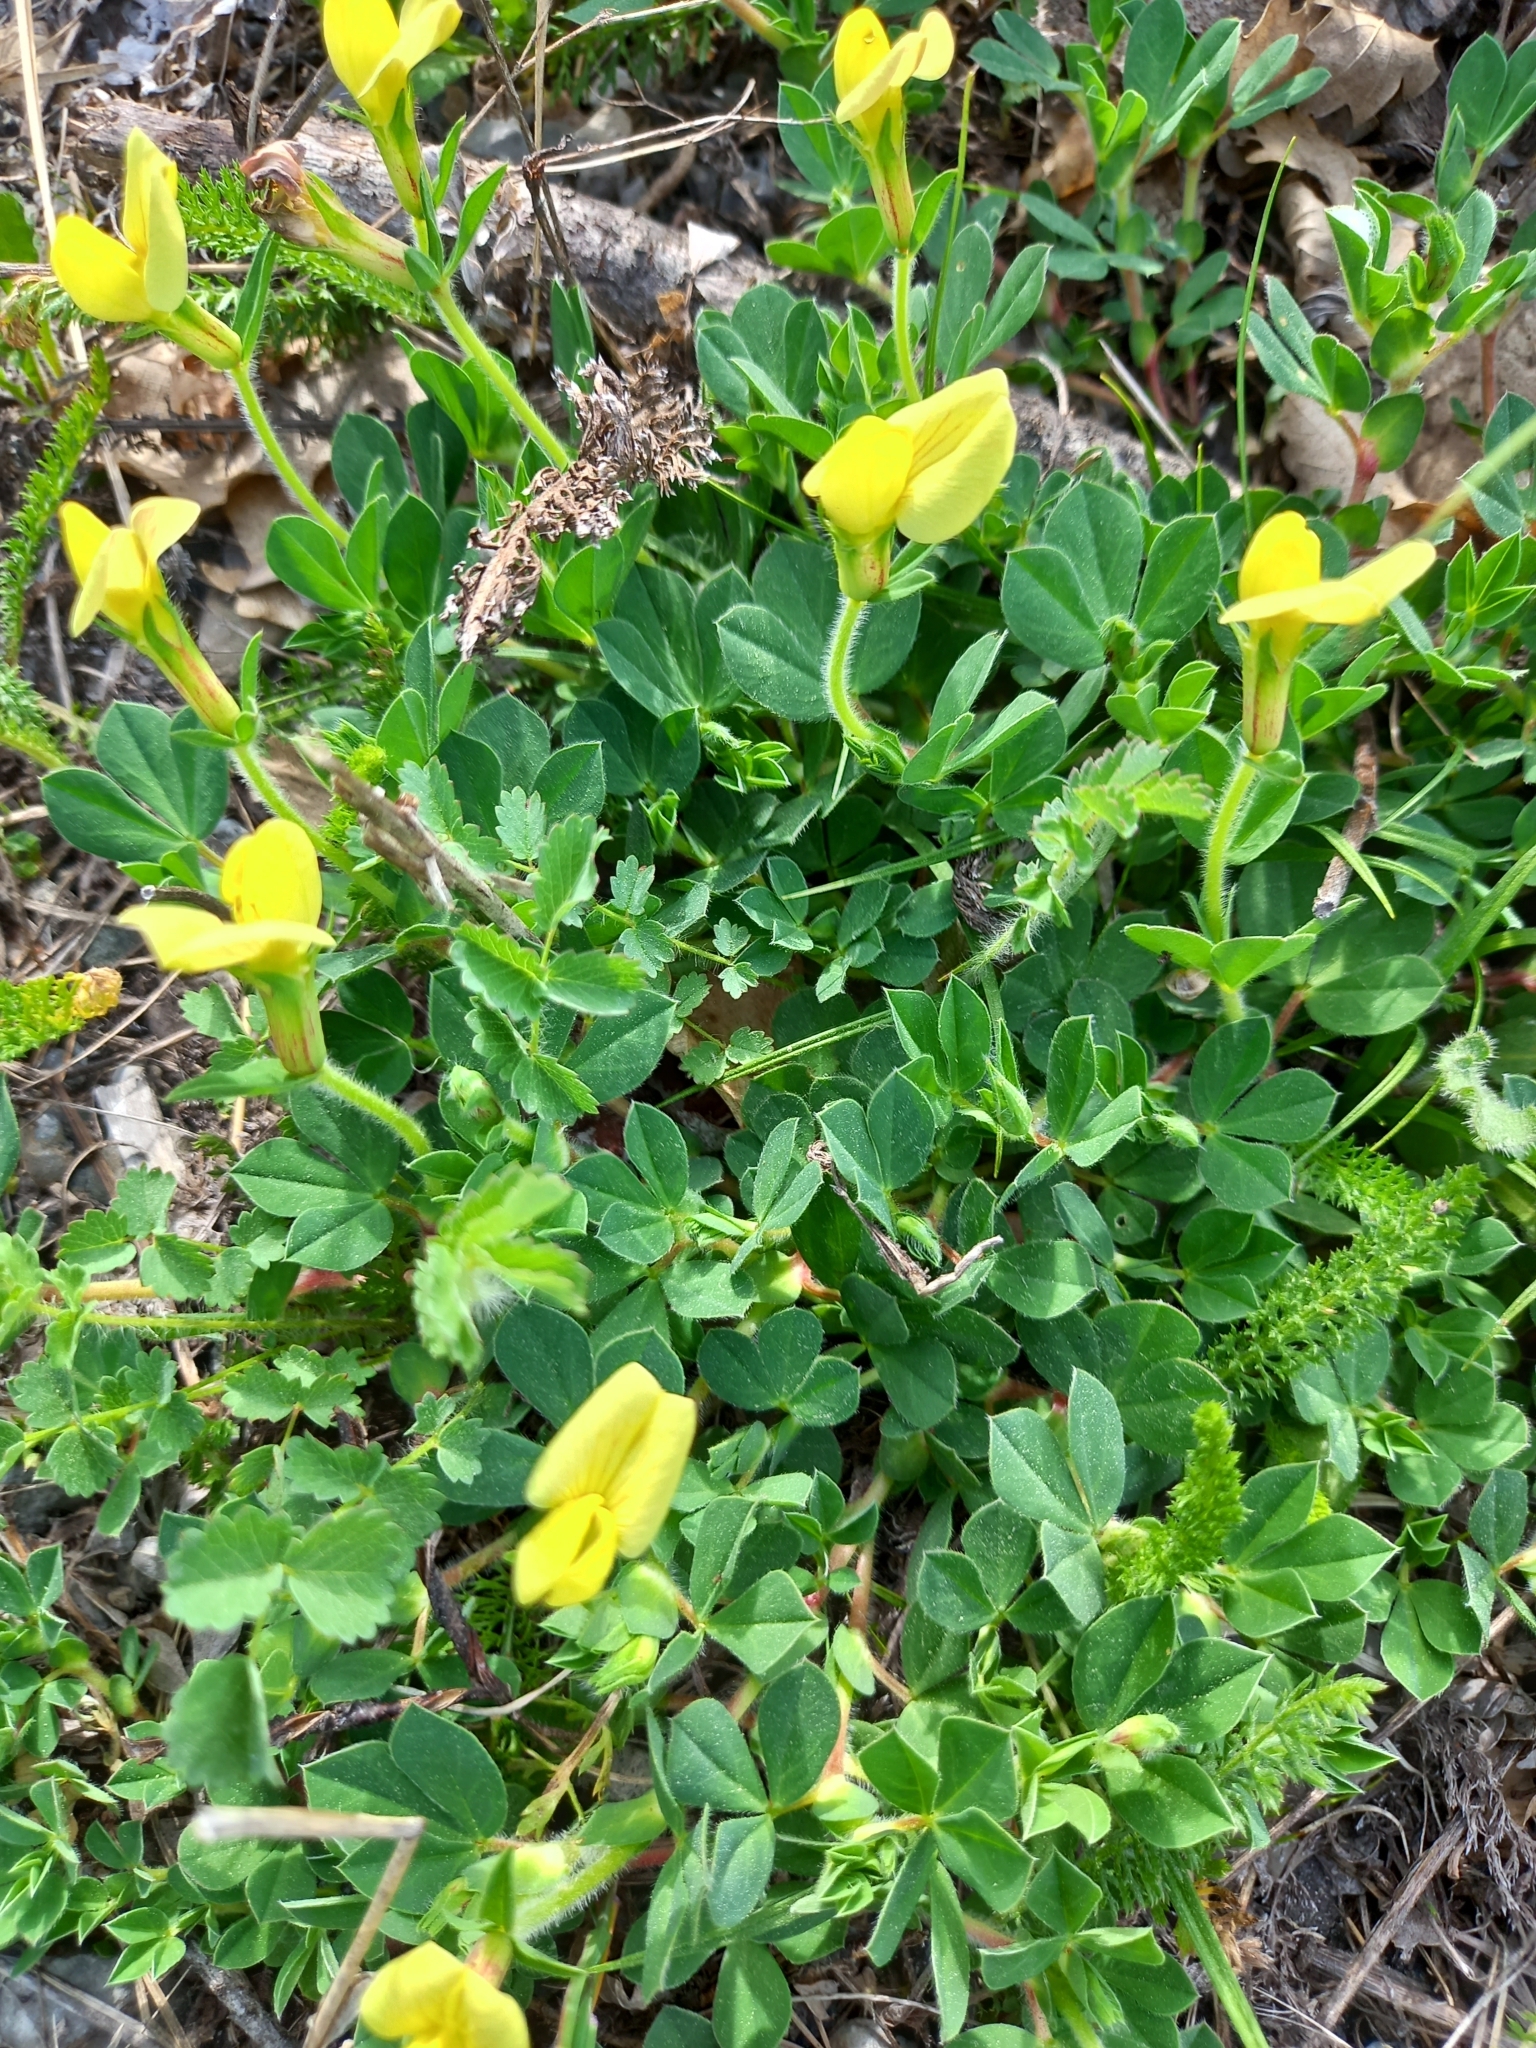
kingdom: Plantae
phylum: Tracheophyta
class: Magnoliopsida
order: Fabales
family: Fabaceae
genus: Lotus
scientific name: Lotus maritimus
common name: Dragon's-teeth
